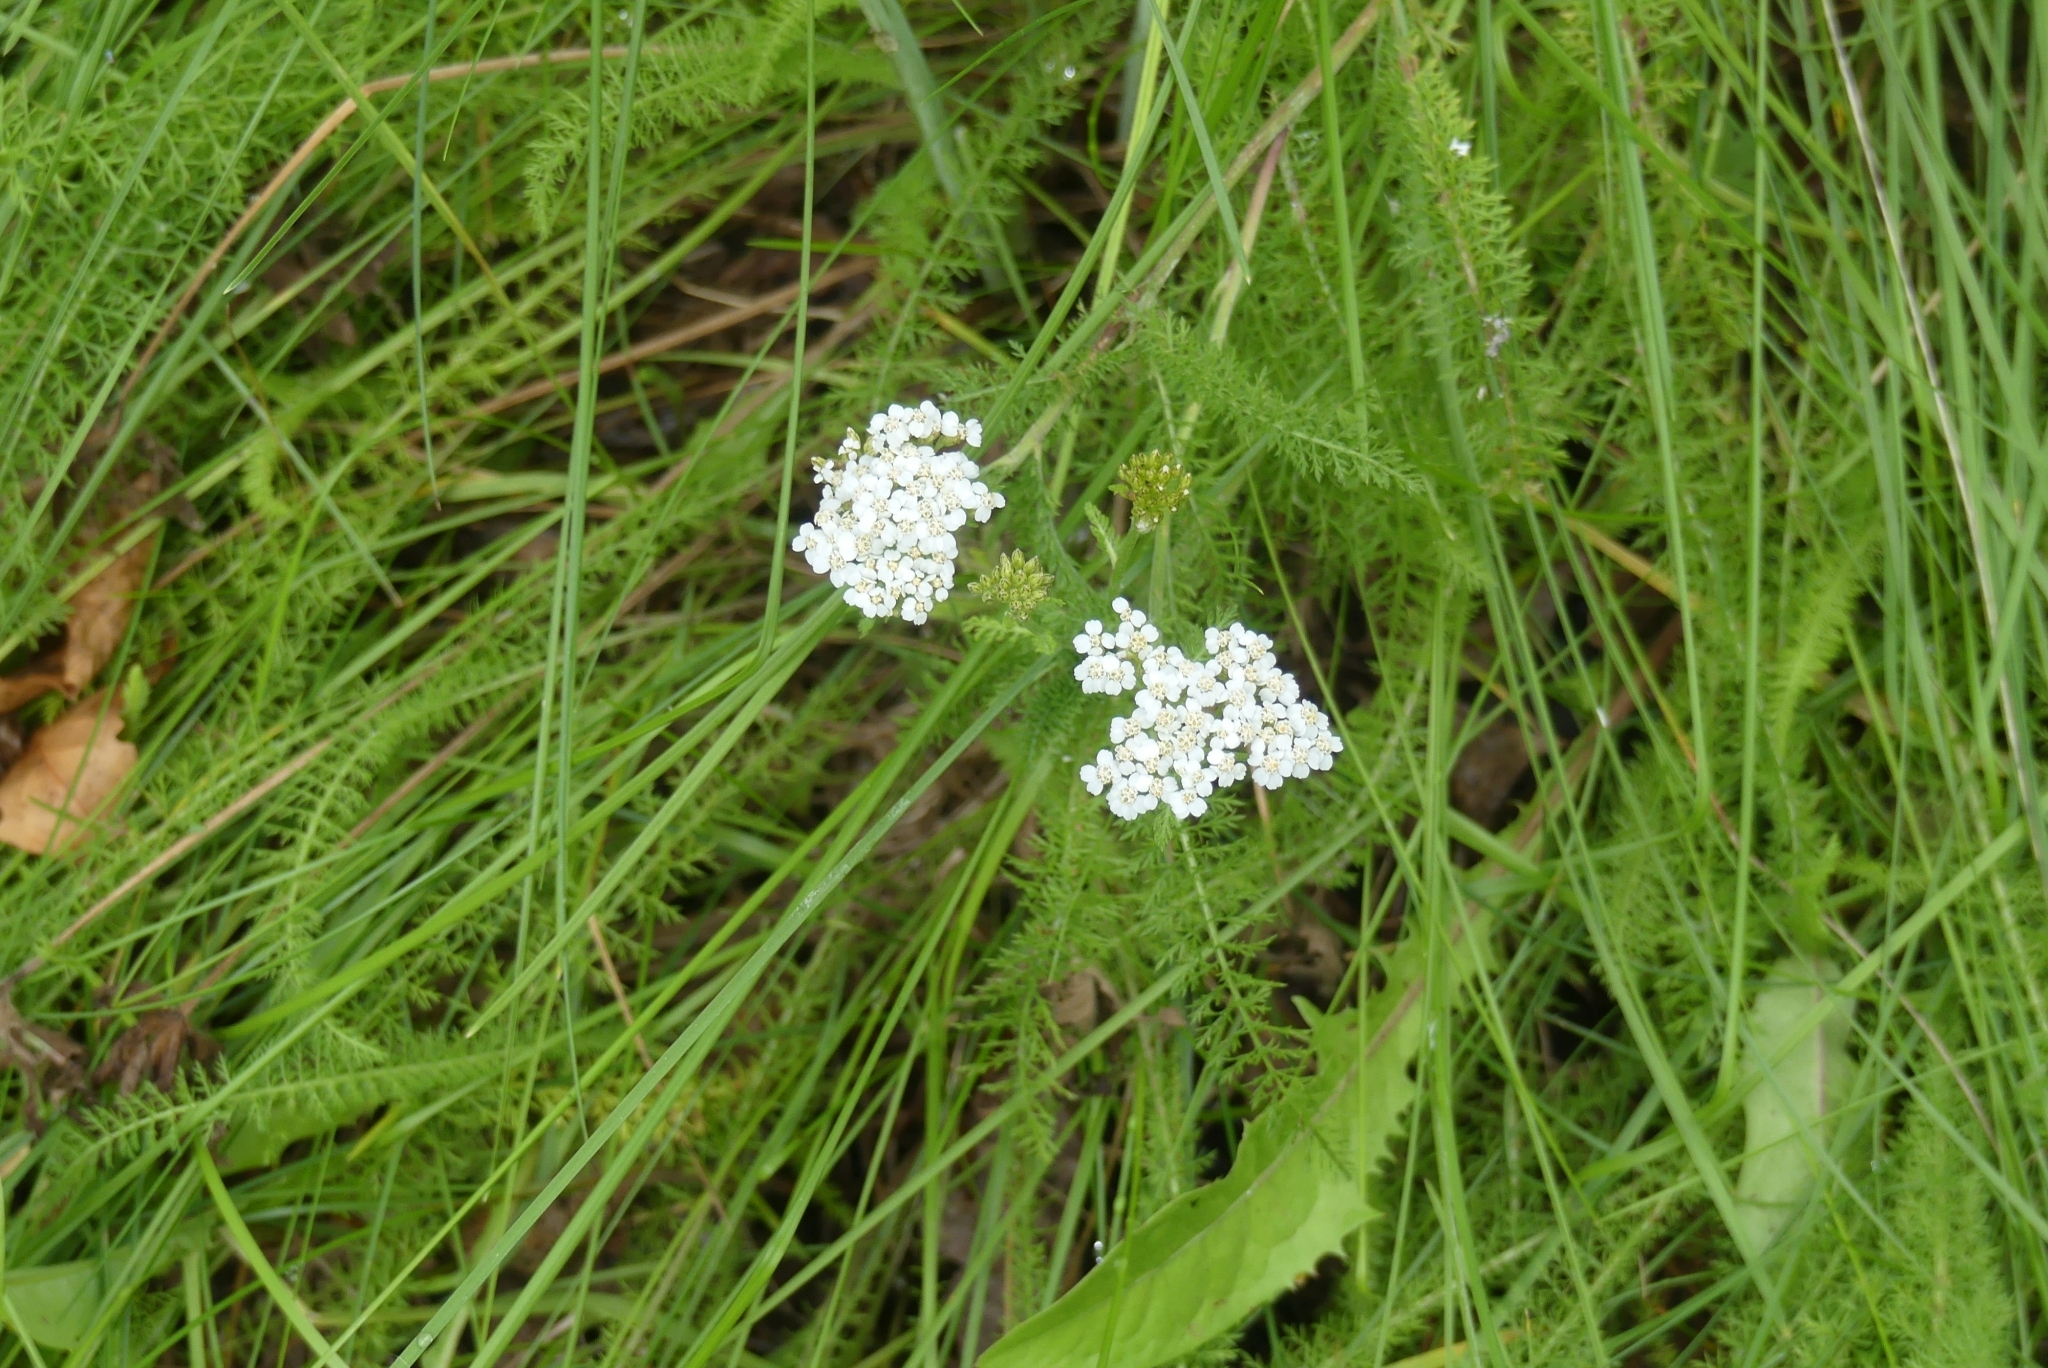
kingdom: Plantae
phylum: Tracheophyta
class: Magnoliopsida
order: Asterales
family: Asteraceae
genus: Achillea
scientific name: Achillea millefolium
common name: Yarrow
